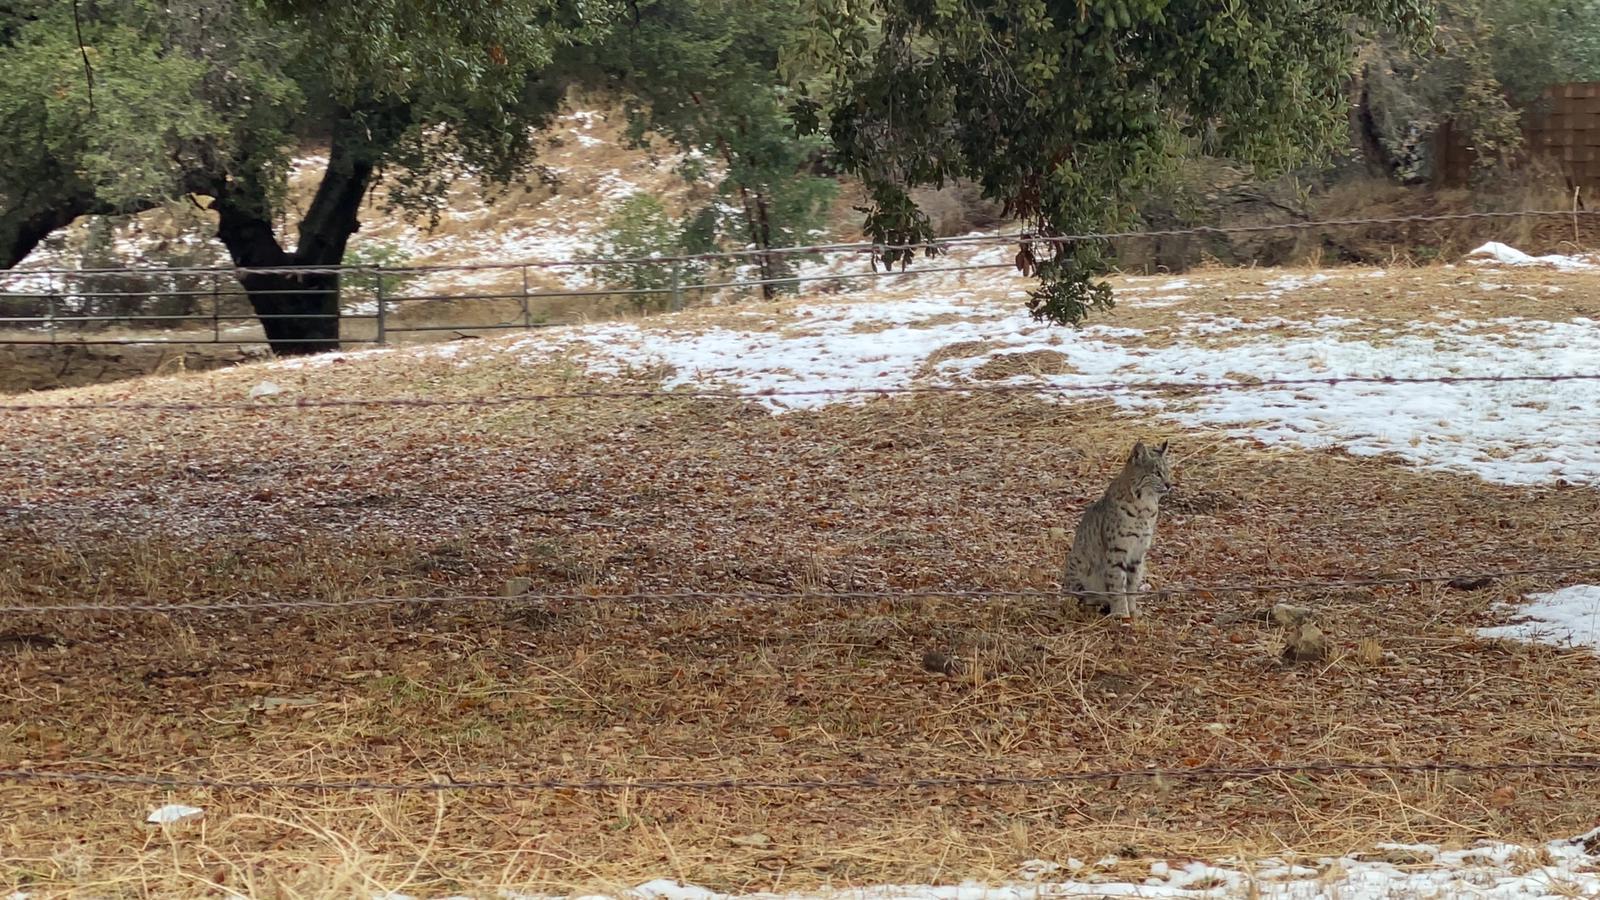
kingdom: Animalia
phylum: Chordata
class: Mammalia
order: Carnivora
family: Felidae
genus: Lynx
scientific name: Lynx rufus
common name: Bobcat
